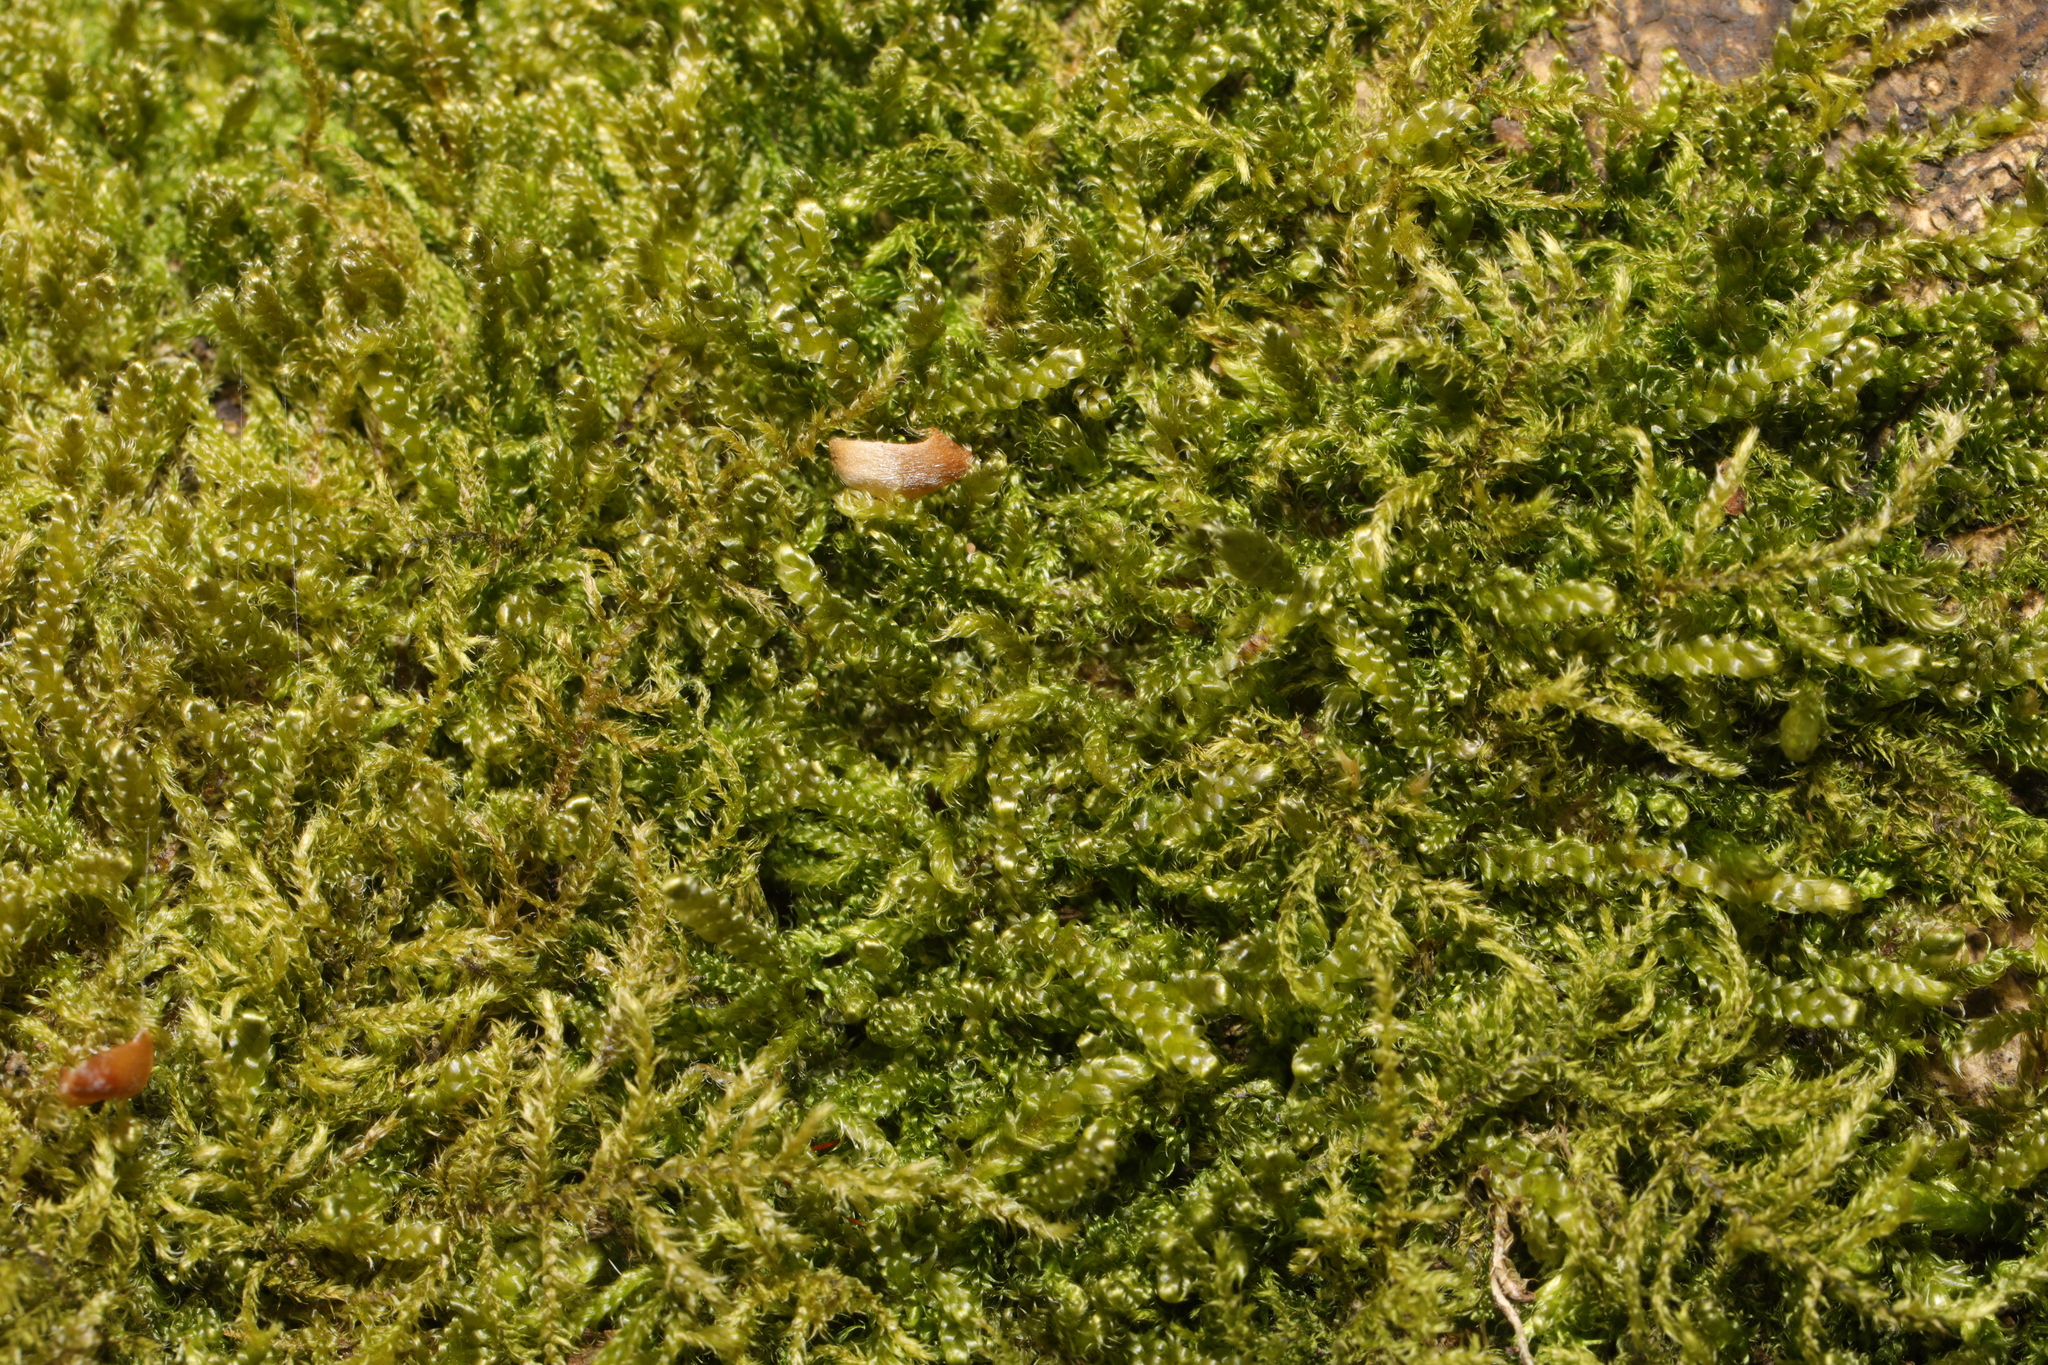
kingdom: Plantae
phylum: Bryophyta
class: Bryopsida
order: Hypnales
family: Hypnaceae
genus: Hypnum
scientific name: Hypnum cupressiforme
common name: Cypress-leaved plait-moss
